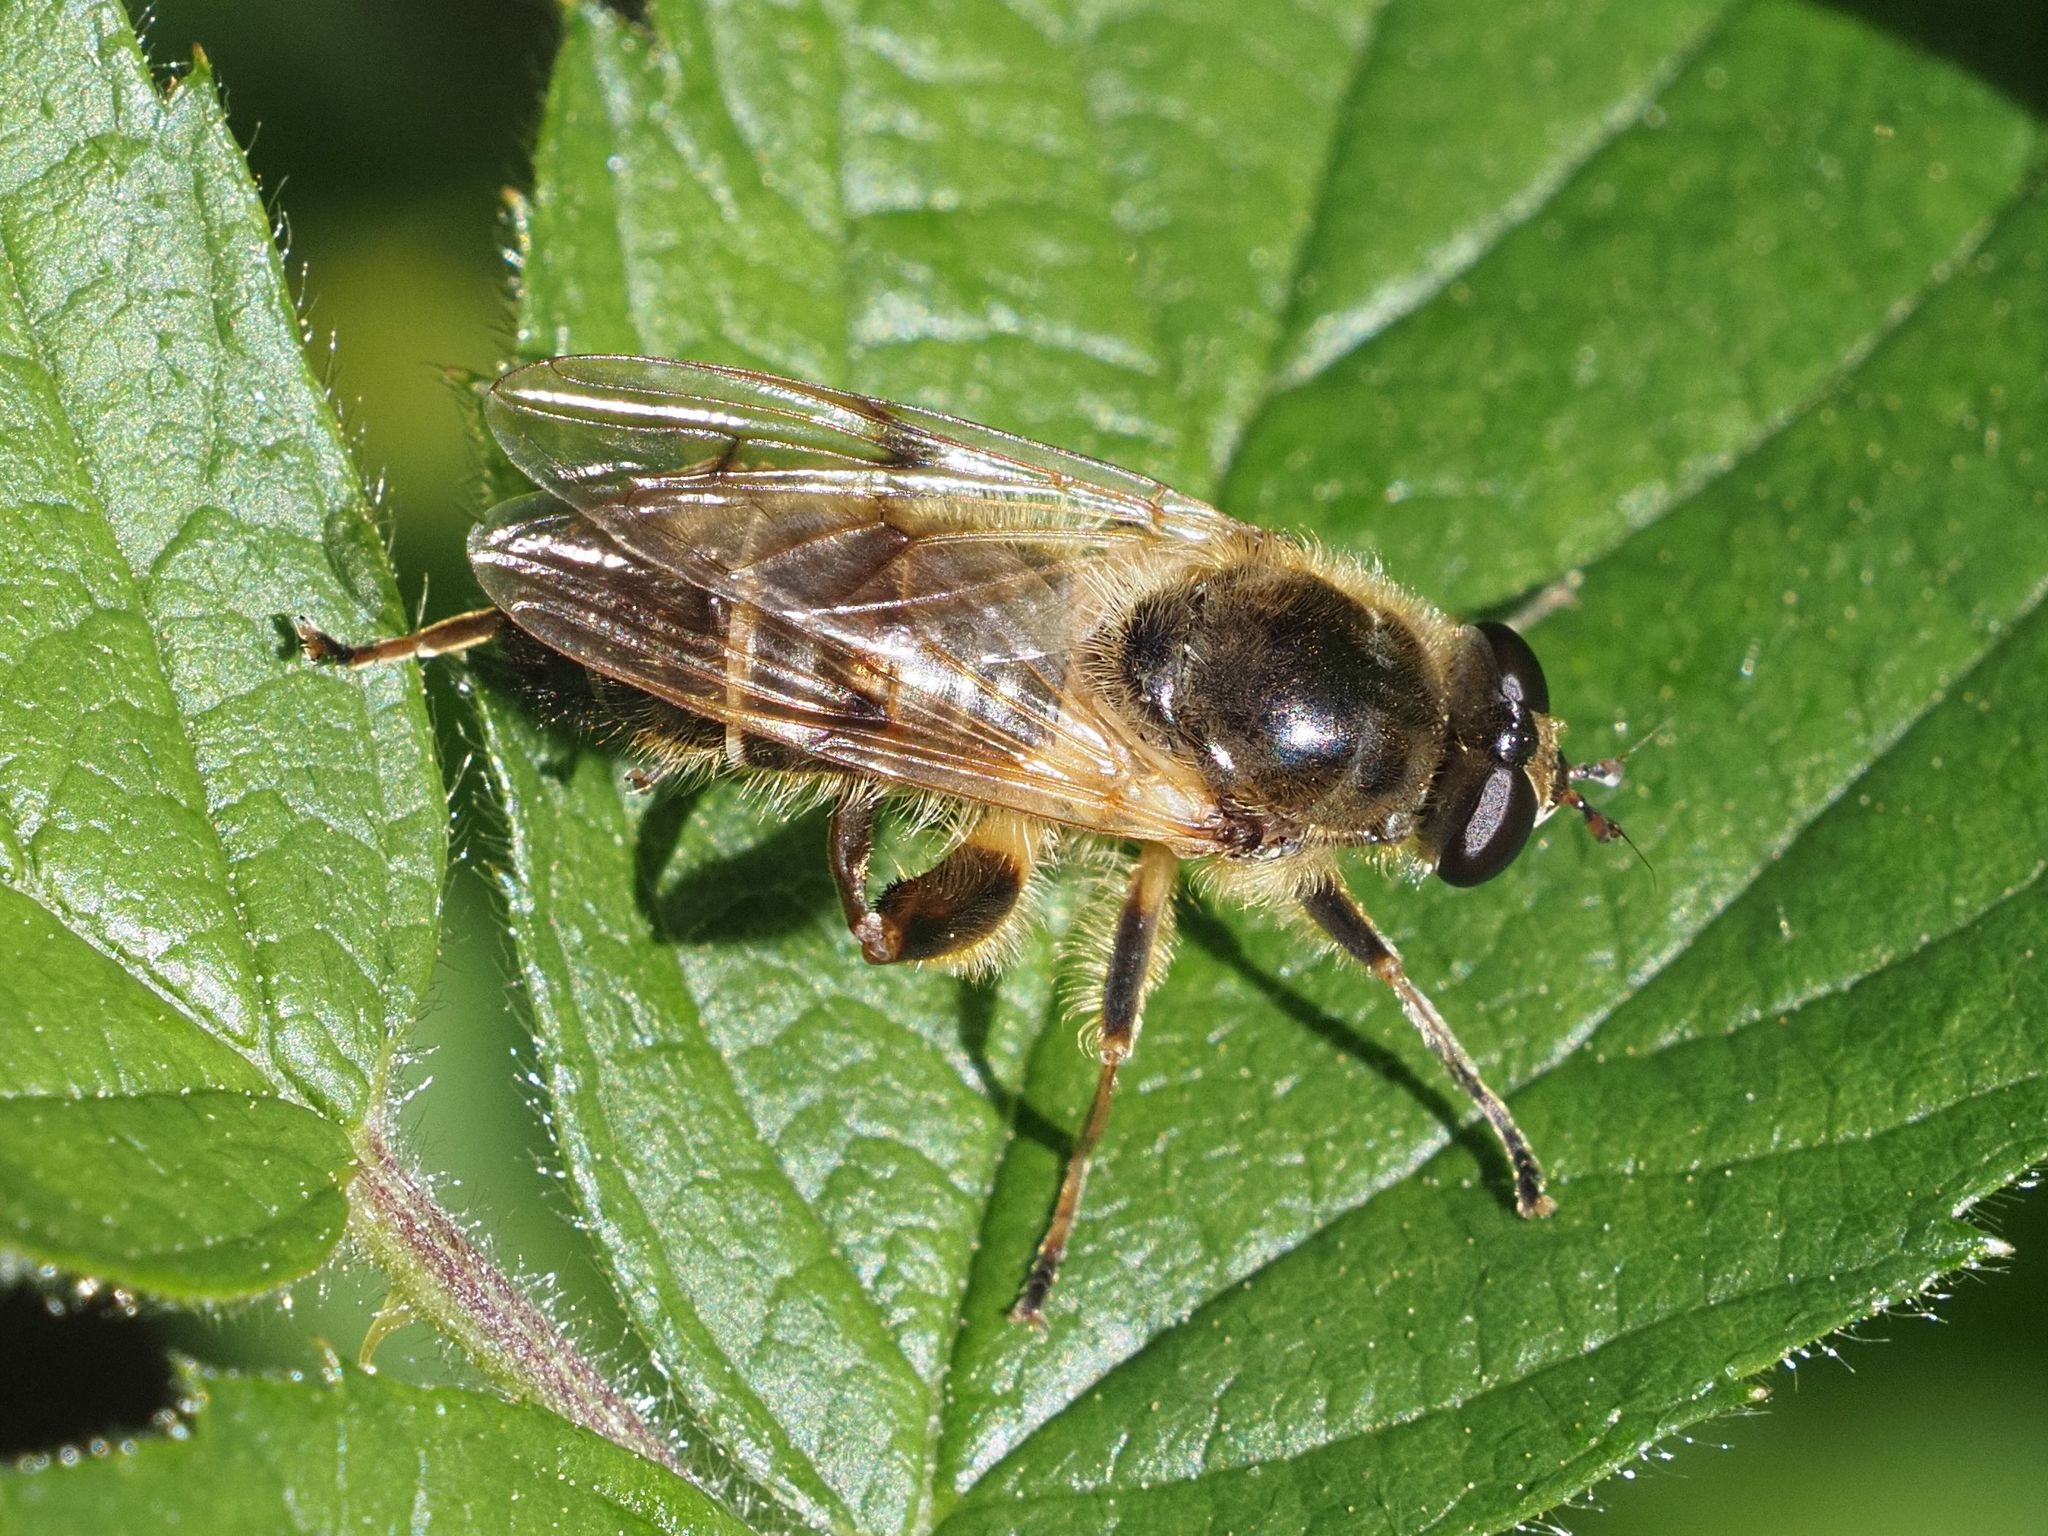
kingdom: Animalia
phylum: Arthropoda
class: Insecta
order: Diptera
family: Syrphidae
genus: Brachypalpus
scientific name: Brachypalpus valgus
